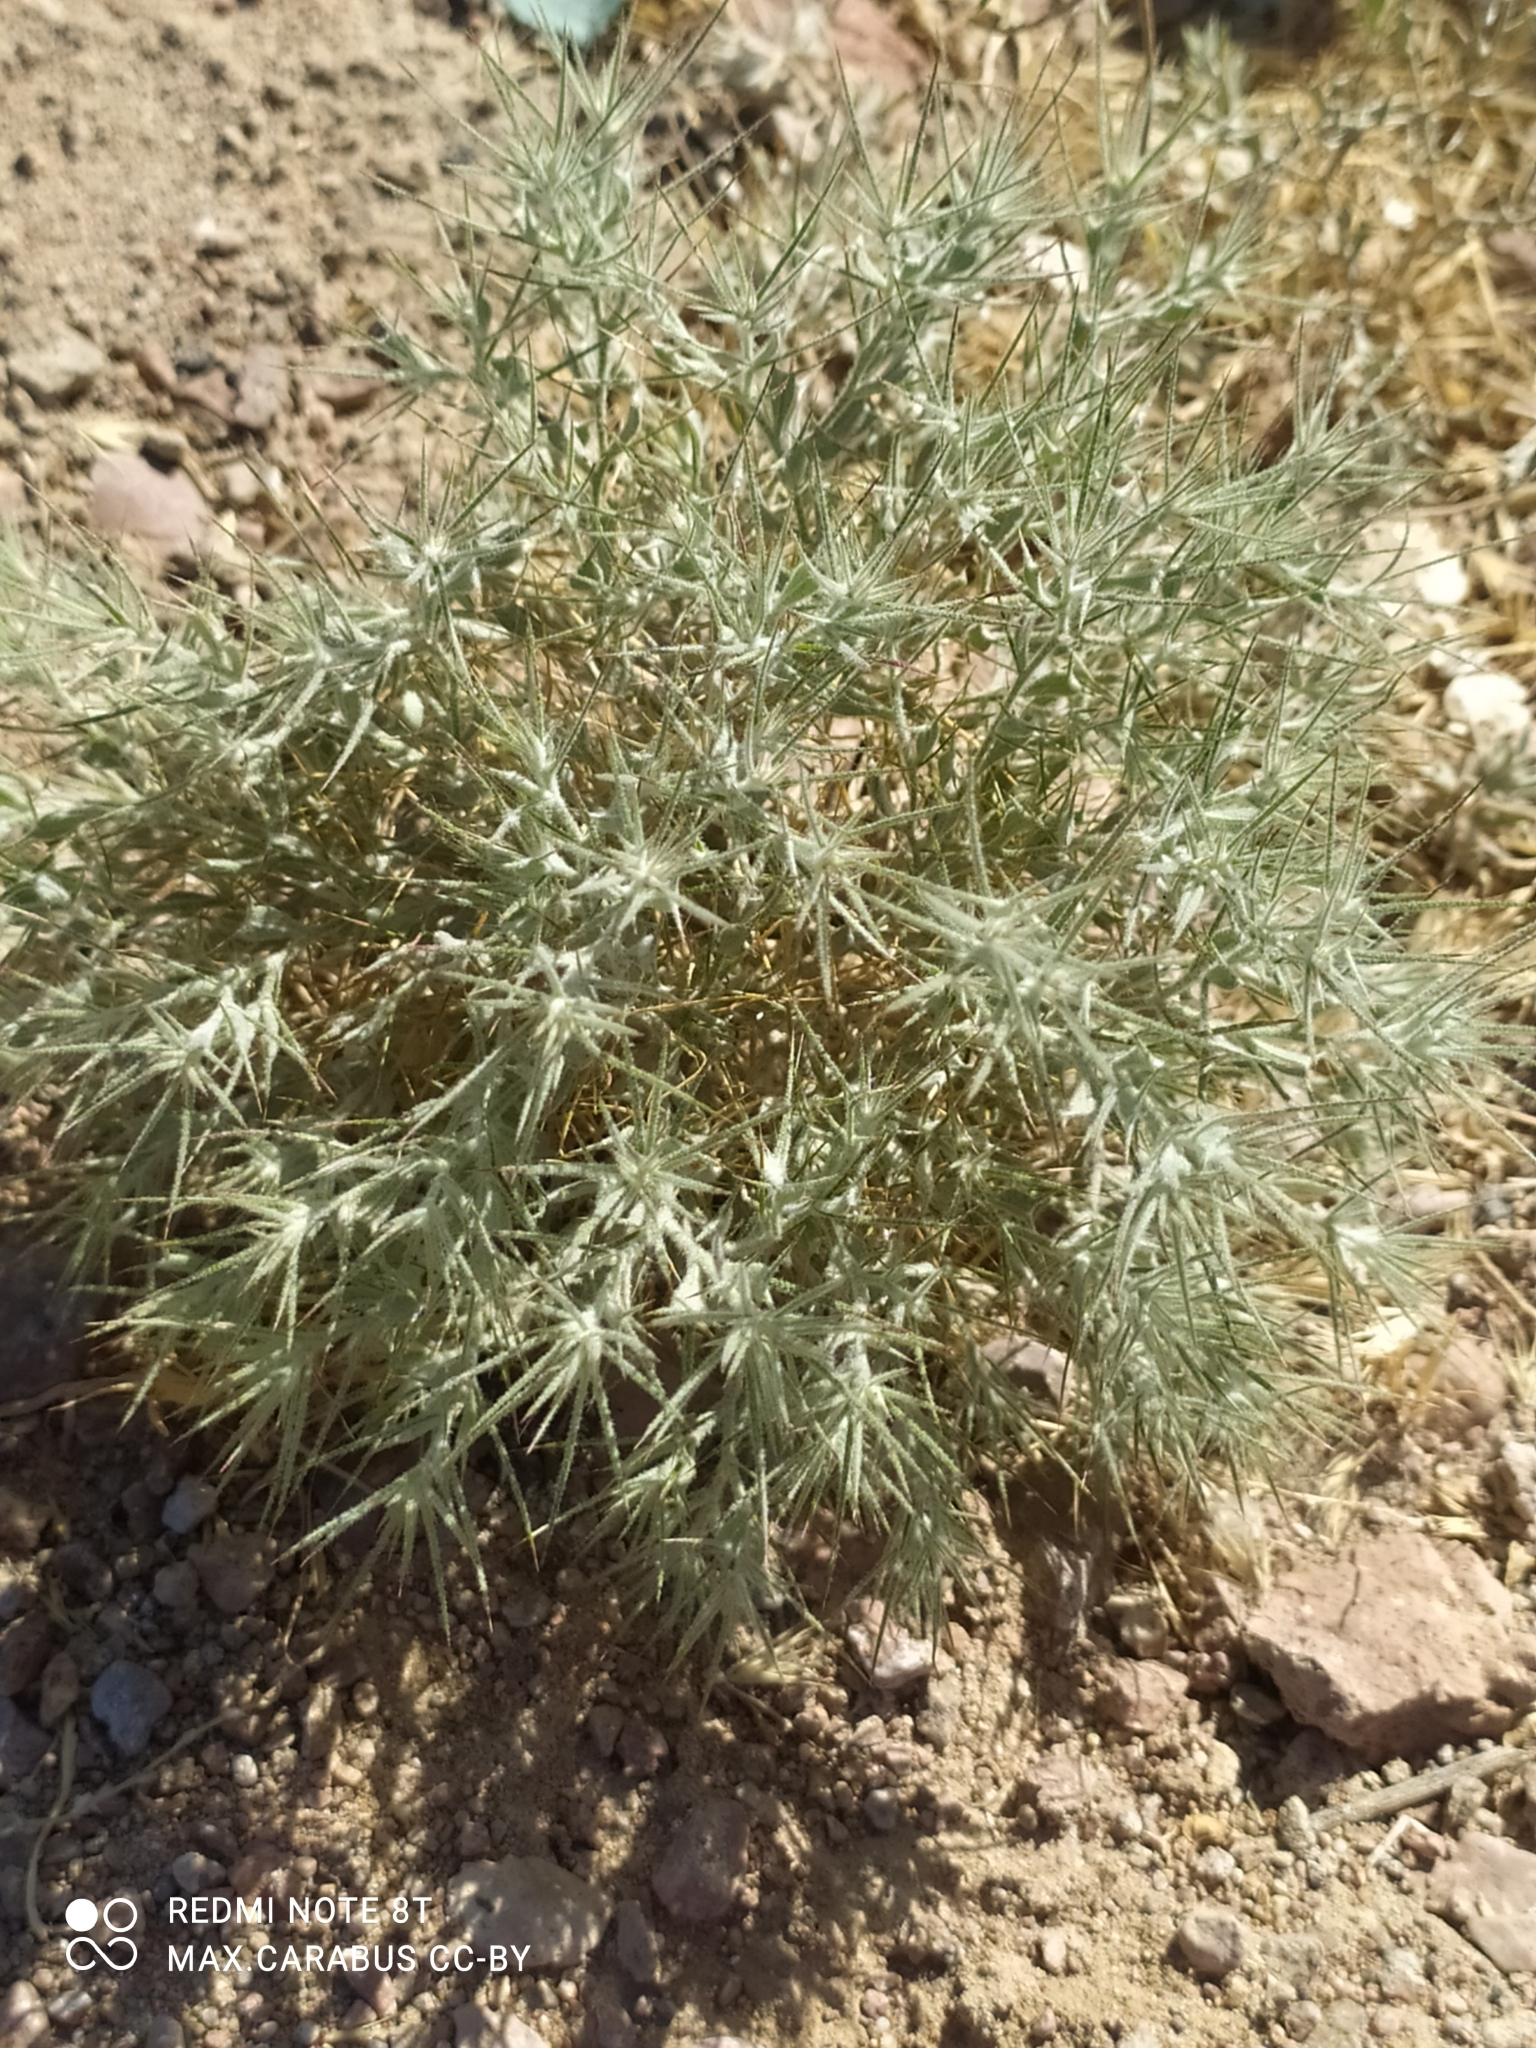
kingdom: Plantae
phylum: Tracheophyta
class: Magnoliopsida
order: Caryophyllales
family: Amaranthaceae
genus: Ceratocarpus
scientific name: Ceratocarpus arenarius
